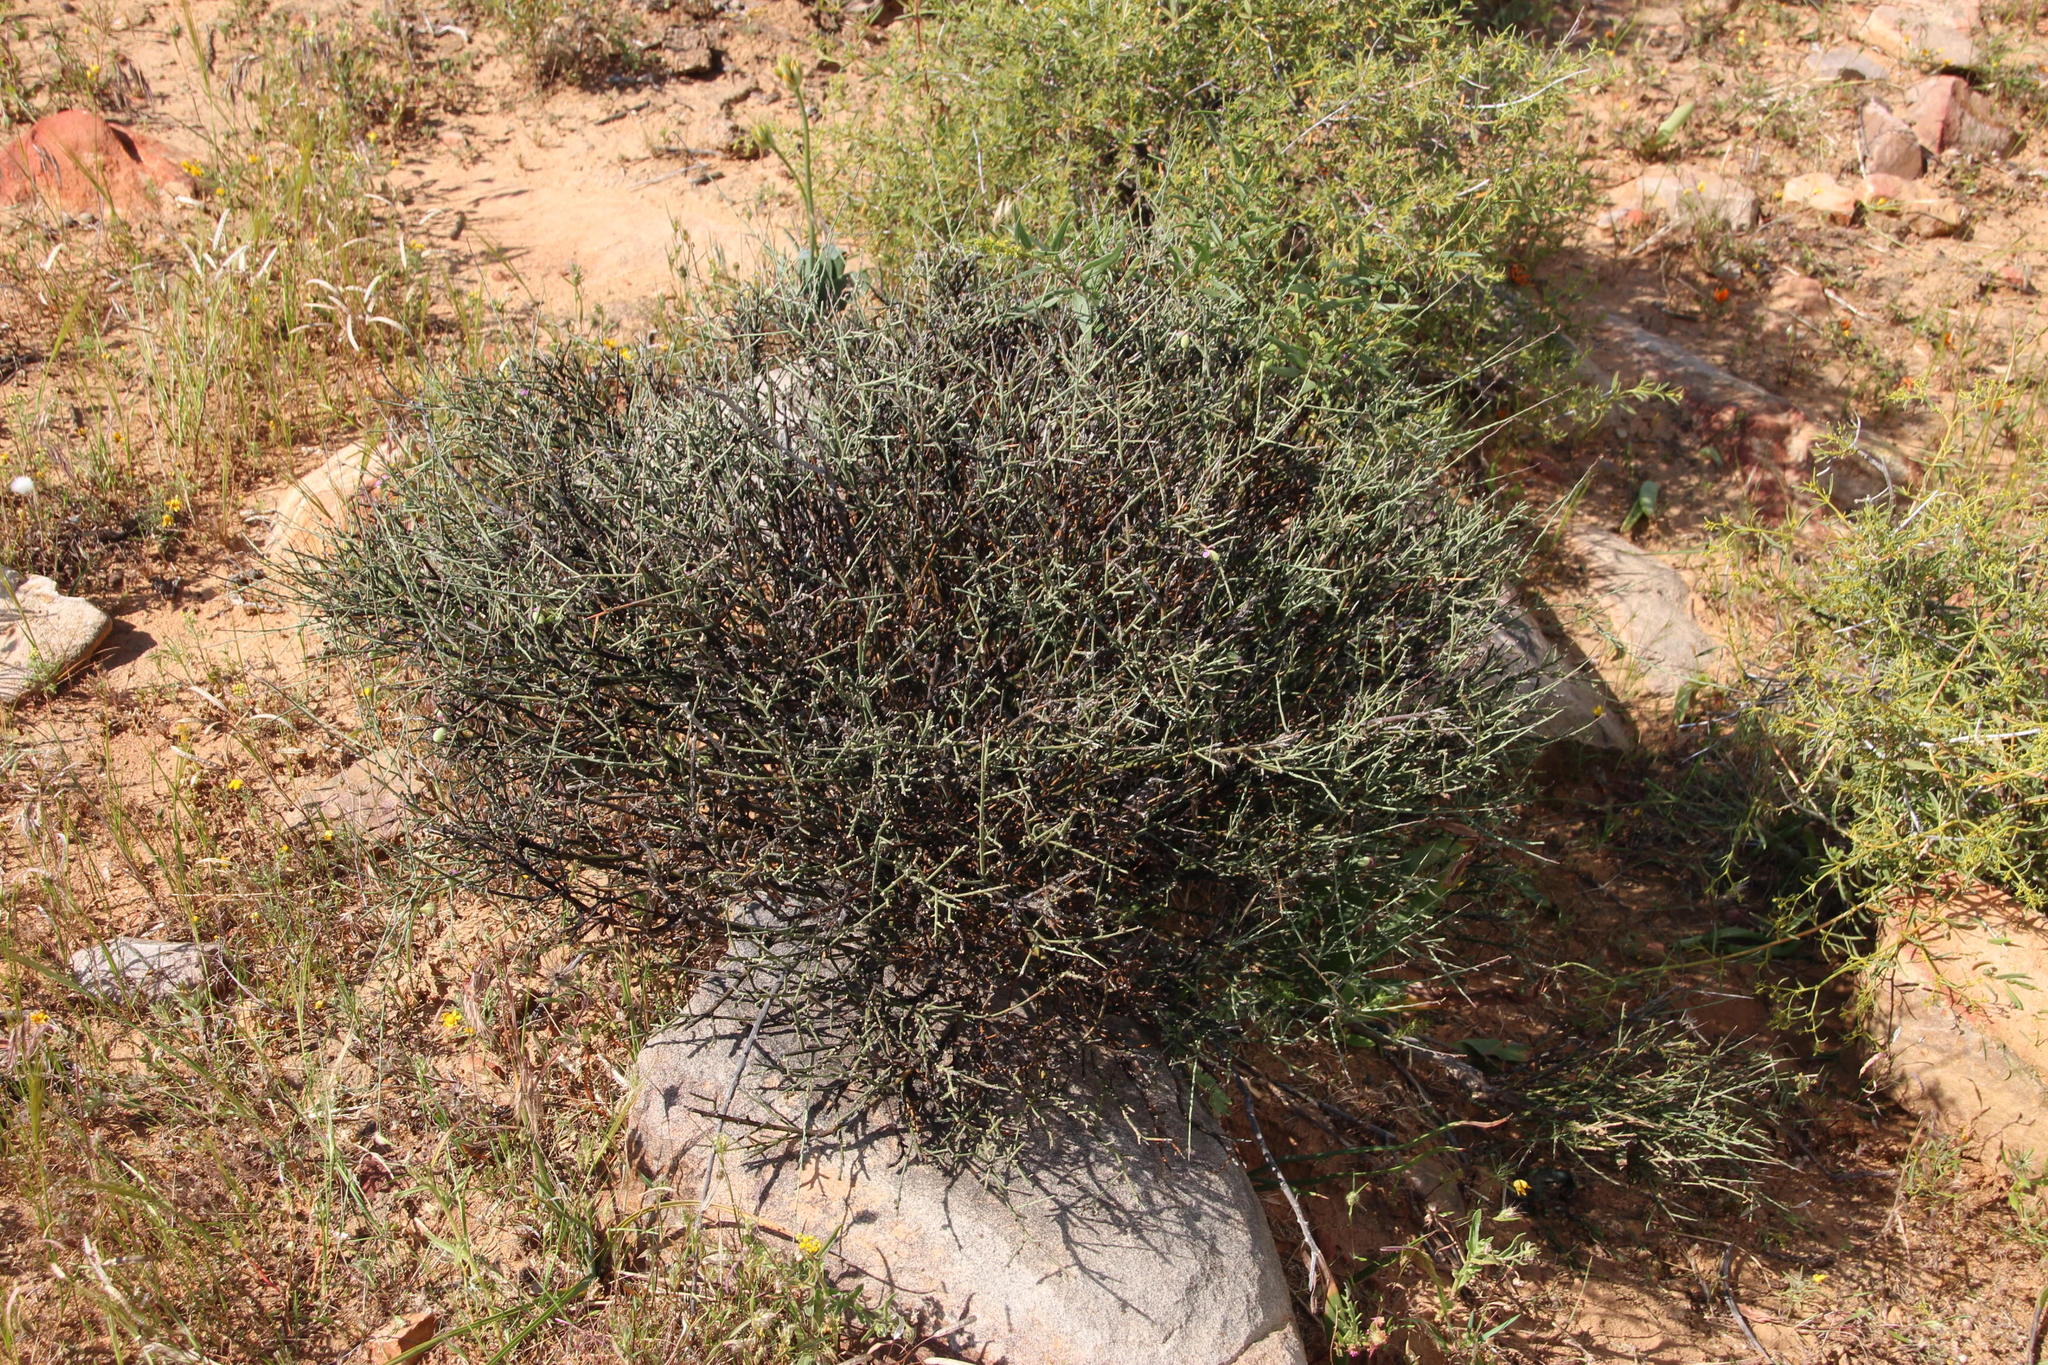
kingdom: Plantae
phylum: Tracheophyta
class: Magnoliopsida
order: Fabales
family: Polygalaceae
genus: Muraltia
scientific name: Muraltia spinosa
